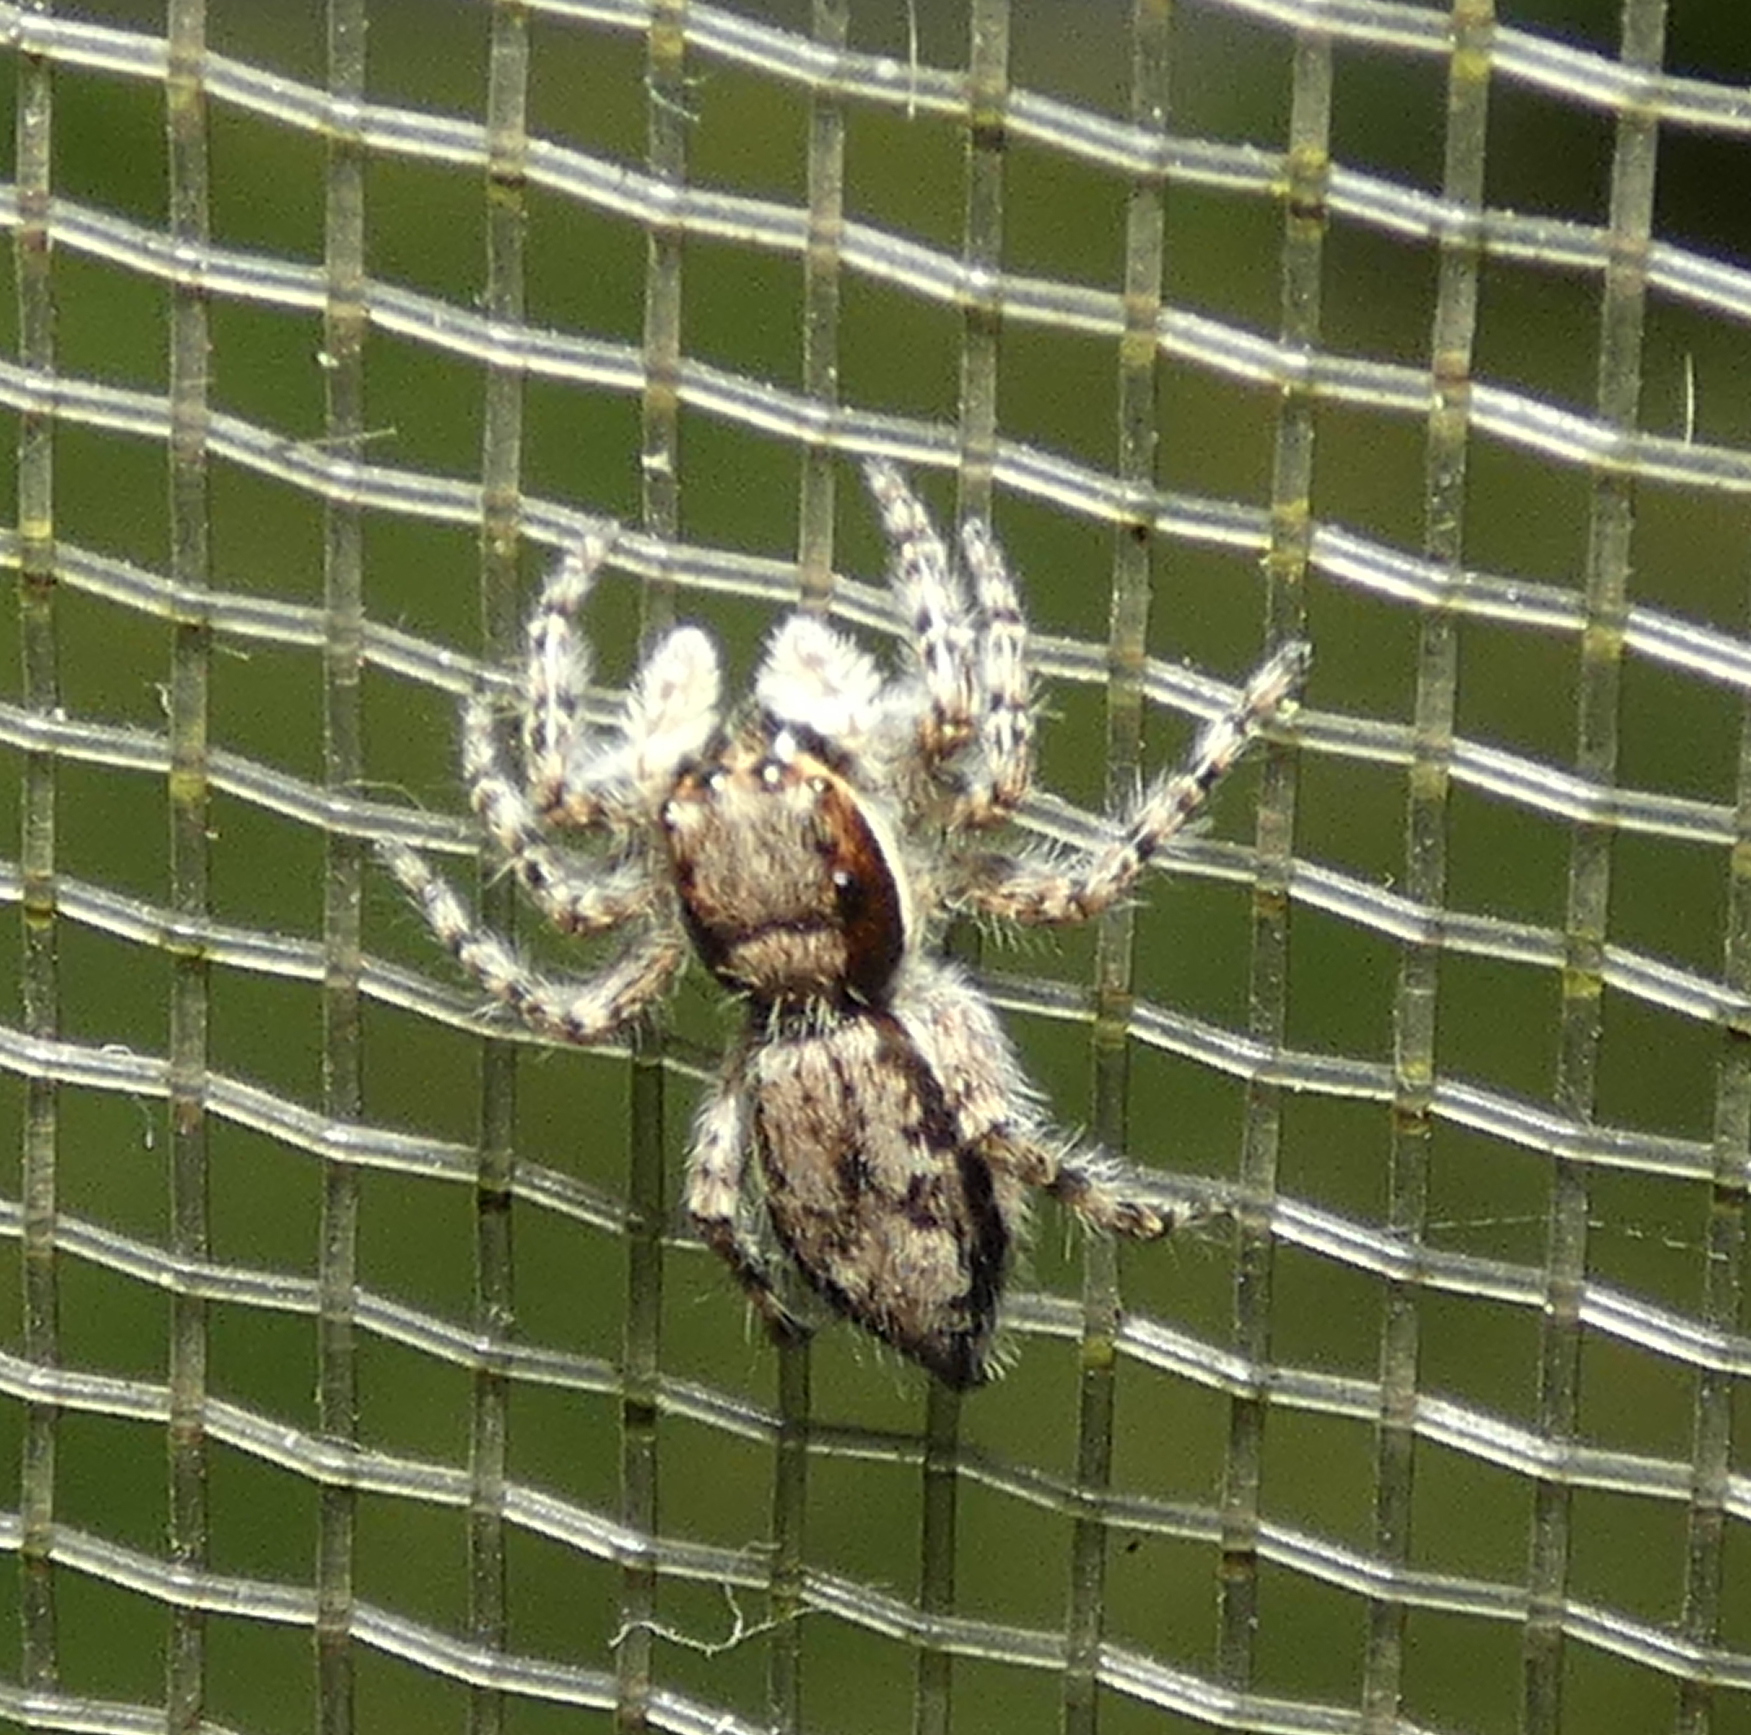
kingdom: Animalia
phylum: Arthropoda
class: Arachnida
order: Araneae
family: Salticidae
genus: Menemerus
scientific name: Menemerus bivittatus
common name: Gray wall jumper
